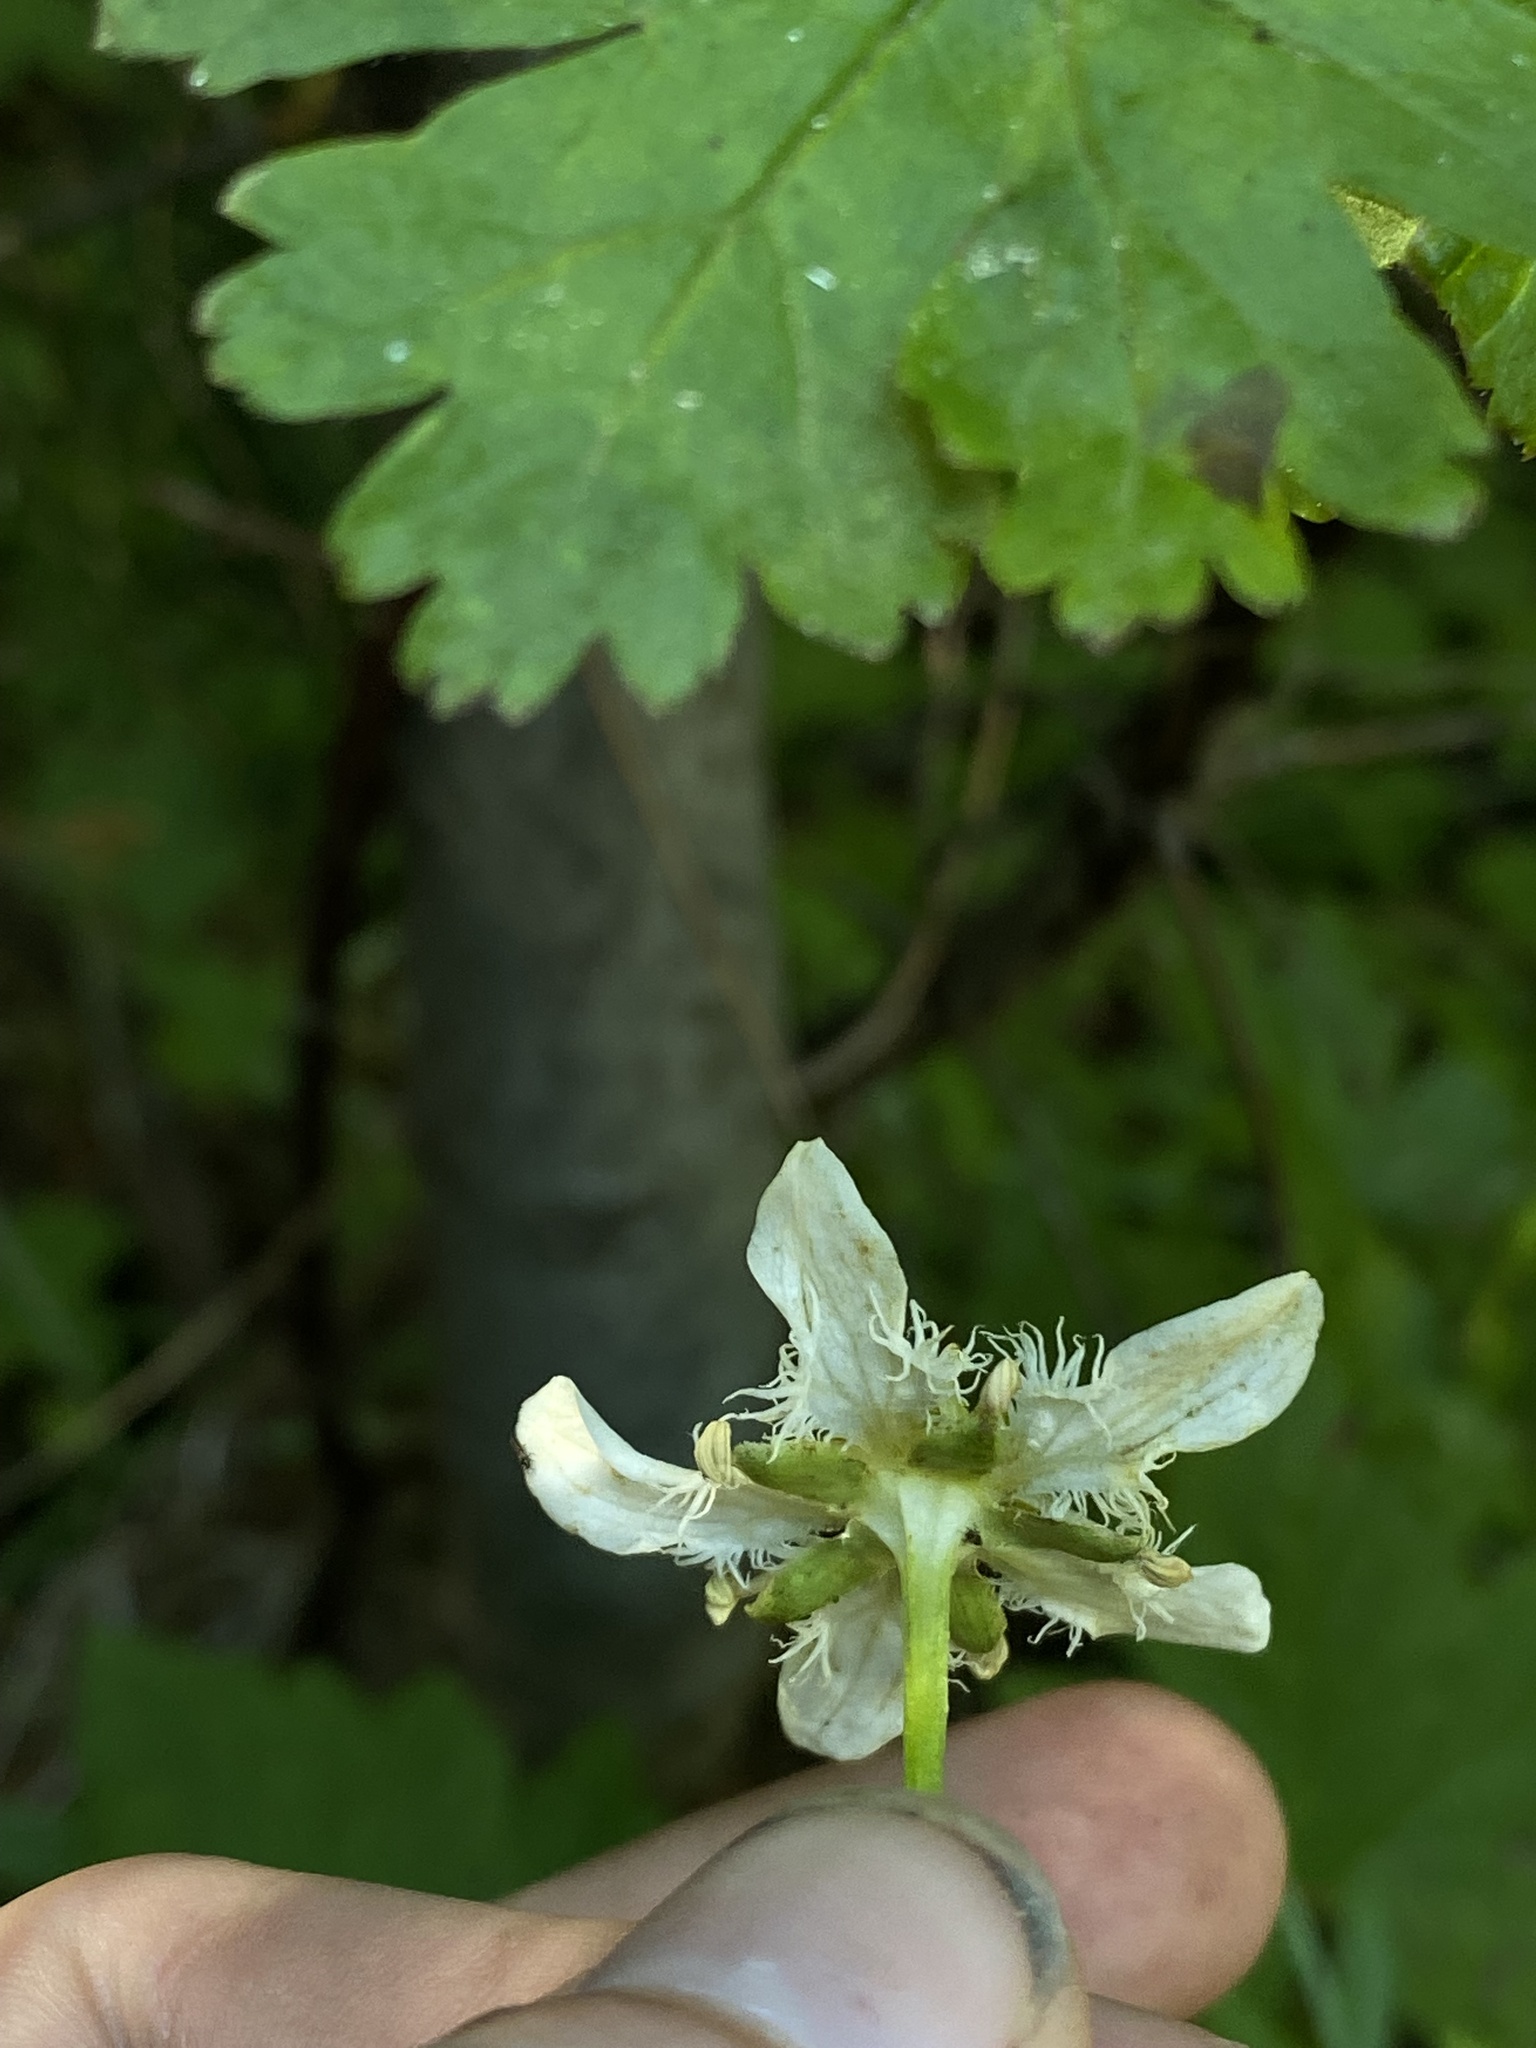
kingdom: Plantae
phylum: Tracheophyta
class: Magnoliopsida
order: Celastrales
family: Parnassiaceae
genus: Parnassia
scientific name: Parnassia fimbriata
